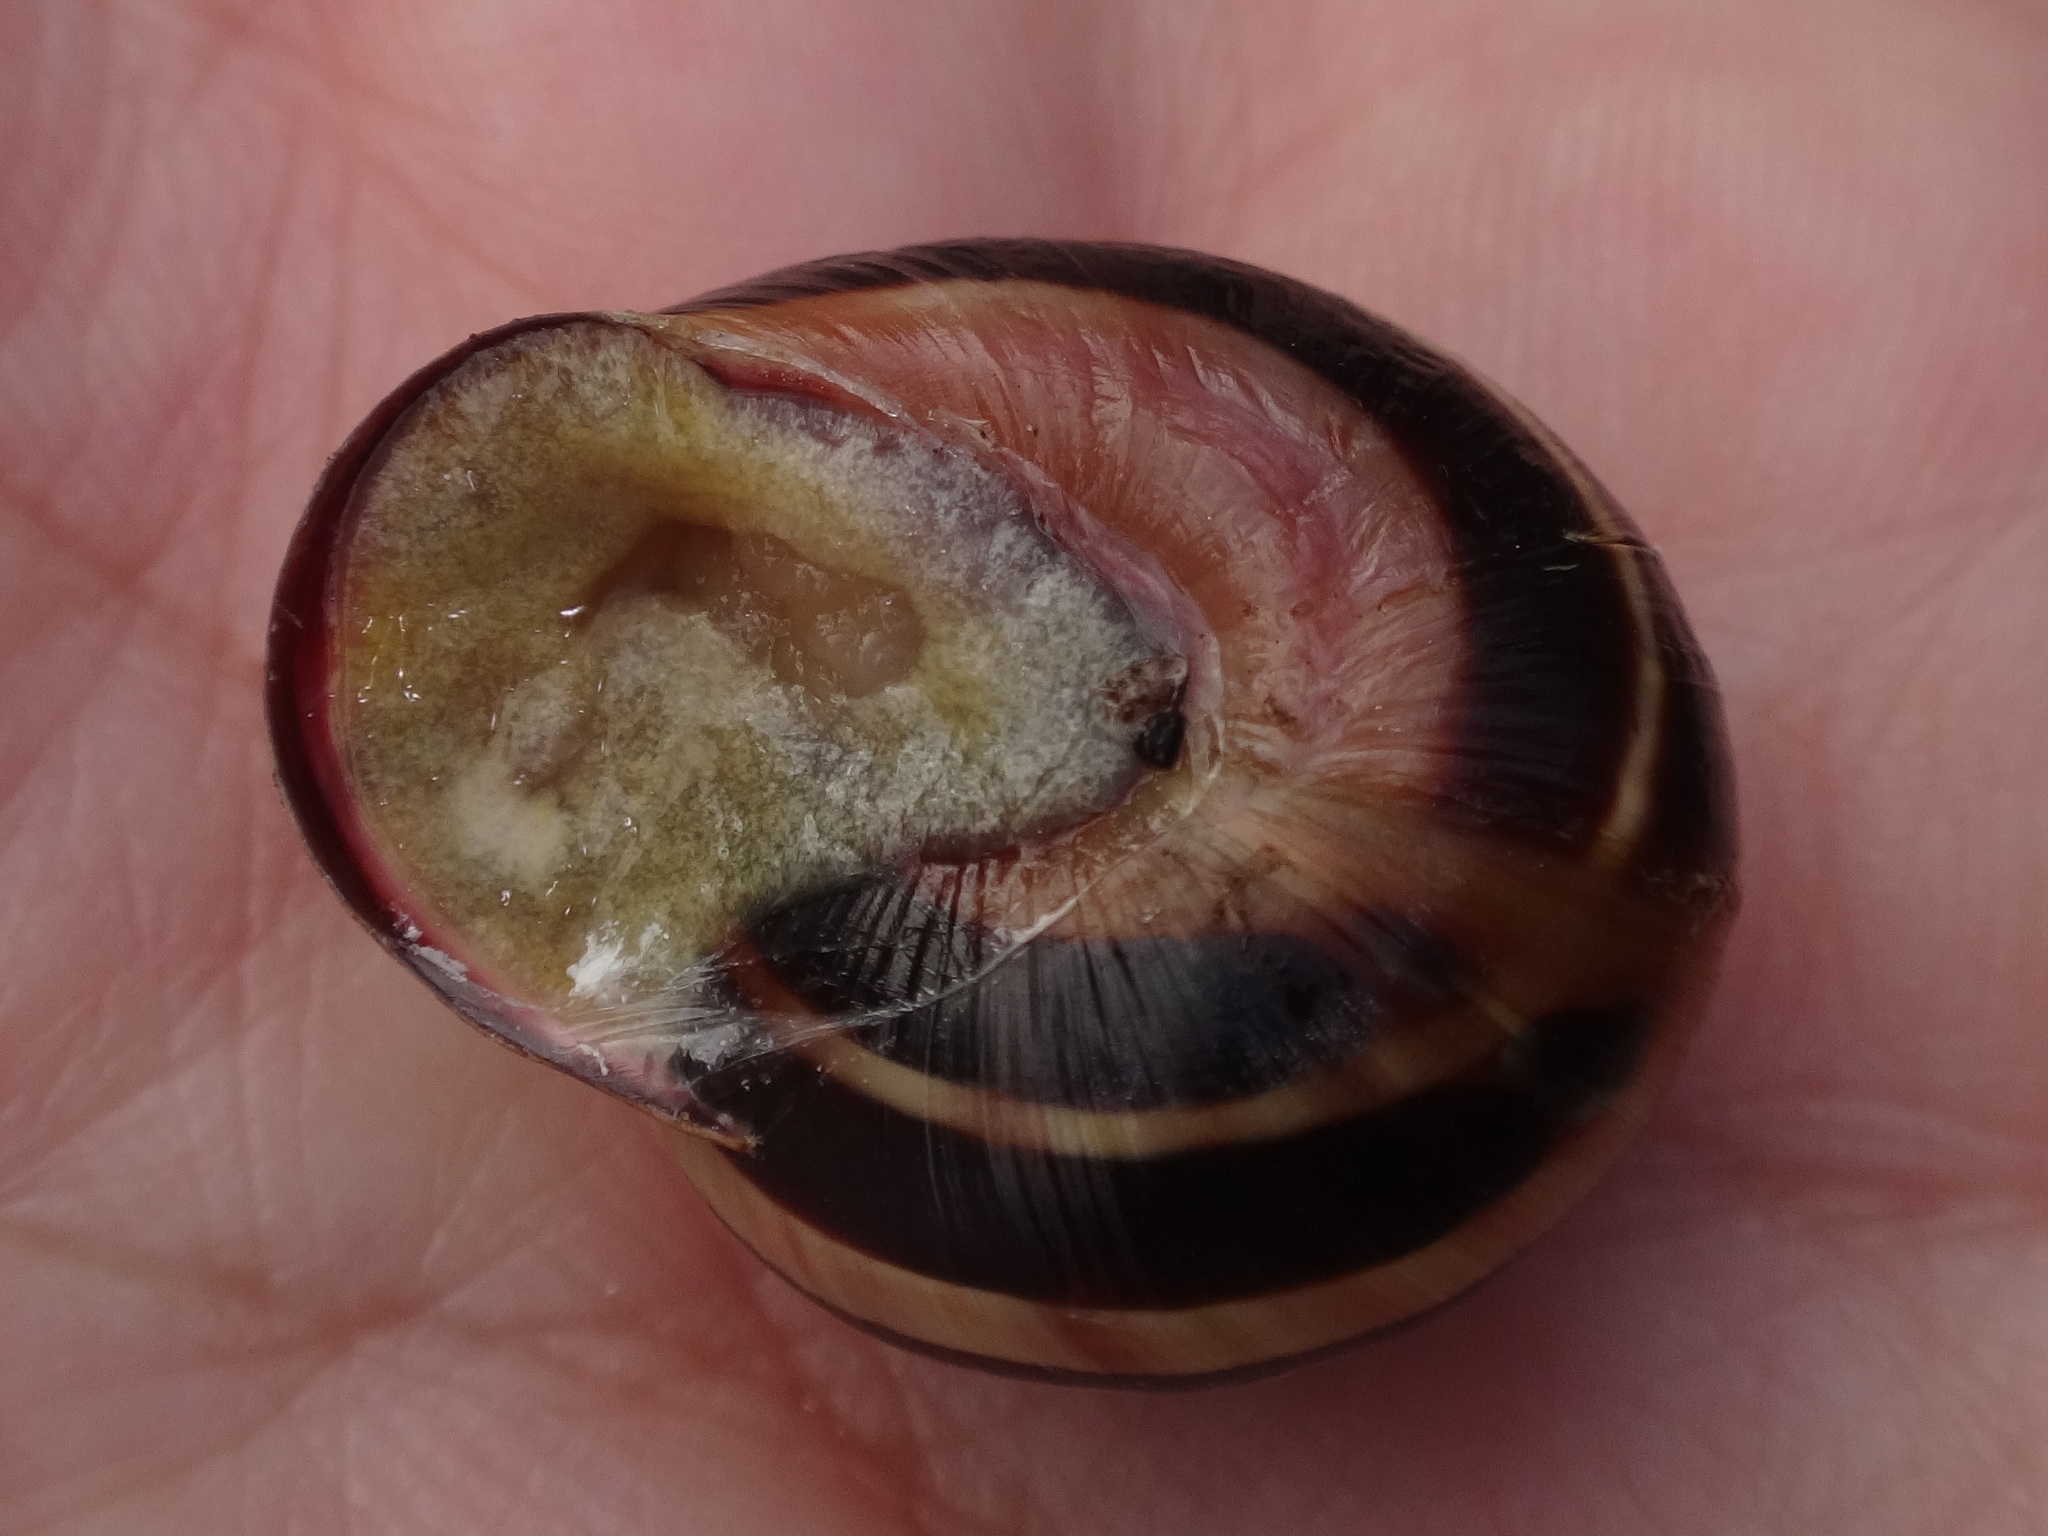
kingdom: Animalia
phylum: Mollusca
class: Gastropoda
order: Stylommatophora
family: Helicidae
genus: Cepaea
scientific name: Cepaea nemoralis
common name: Grovesnail
